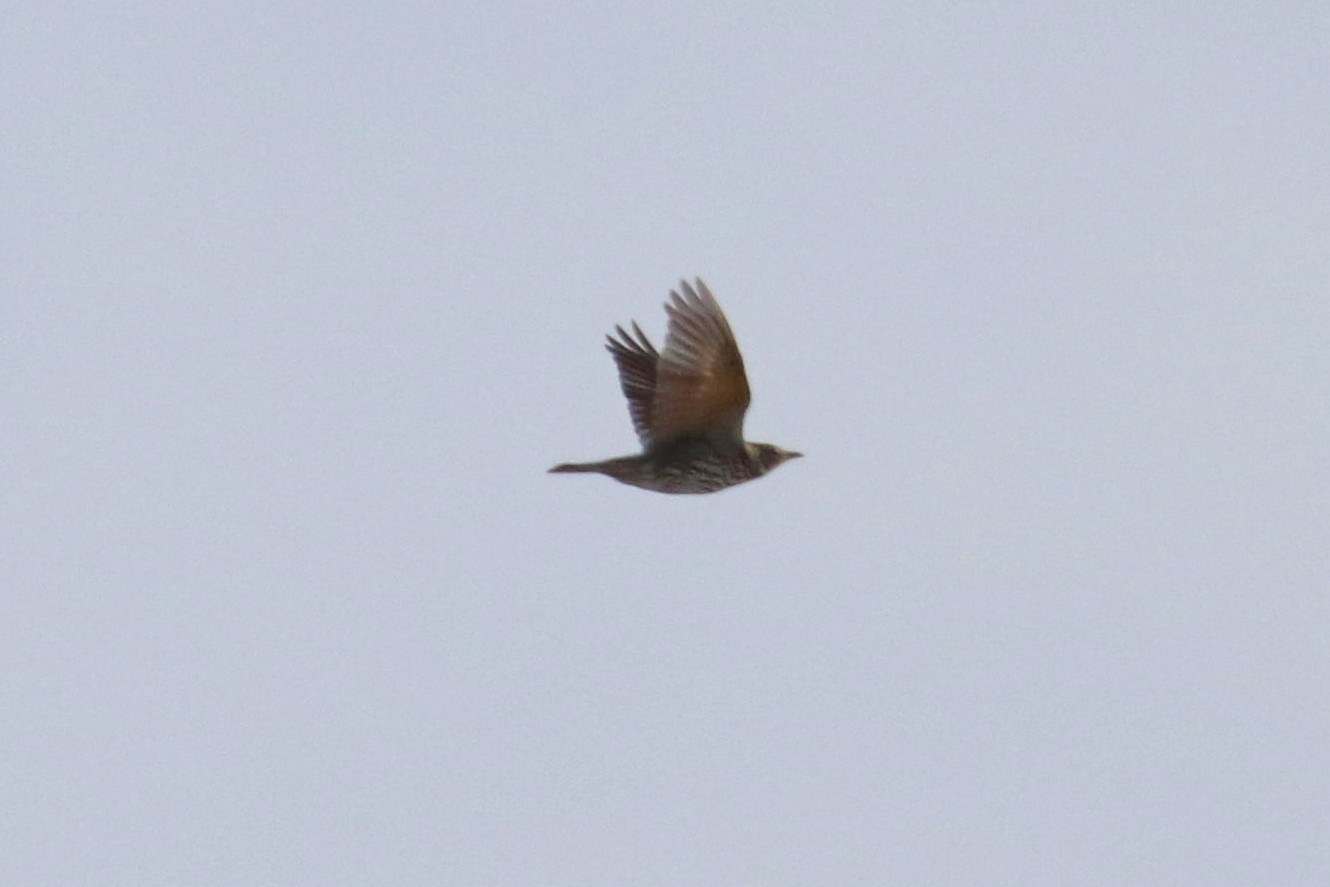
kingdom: Animalia
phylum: Chordata
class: Aves
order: Passeriformes
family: Turdidae
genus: Turdus
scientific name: Turdus philomelos
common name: Song thrush
